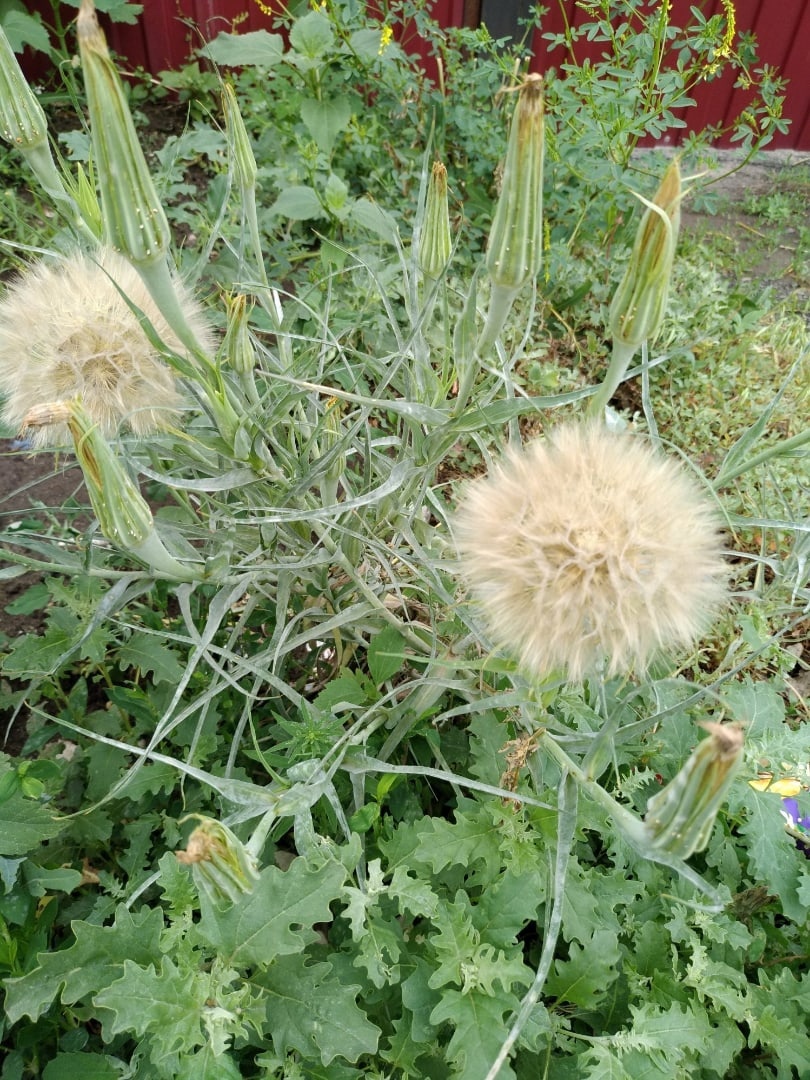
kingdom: Plantae
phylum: Tracheophyta
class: Magnoliopsida
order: Asterales
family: Asteraceae
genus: Tragopogon
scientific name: Tragopogon dubius
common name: Yellow salsify
